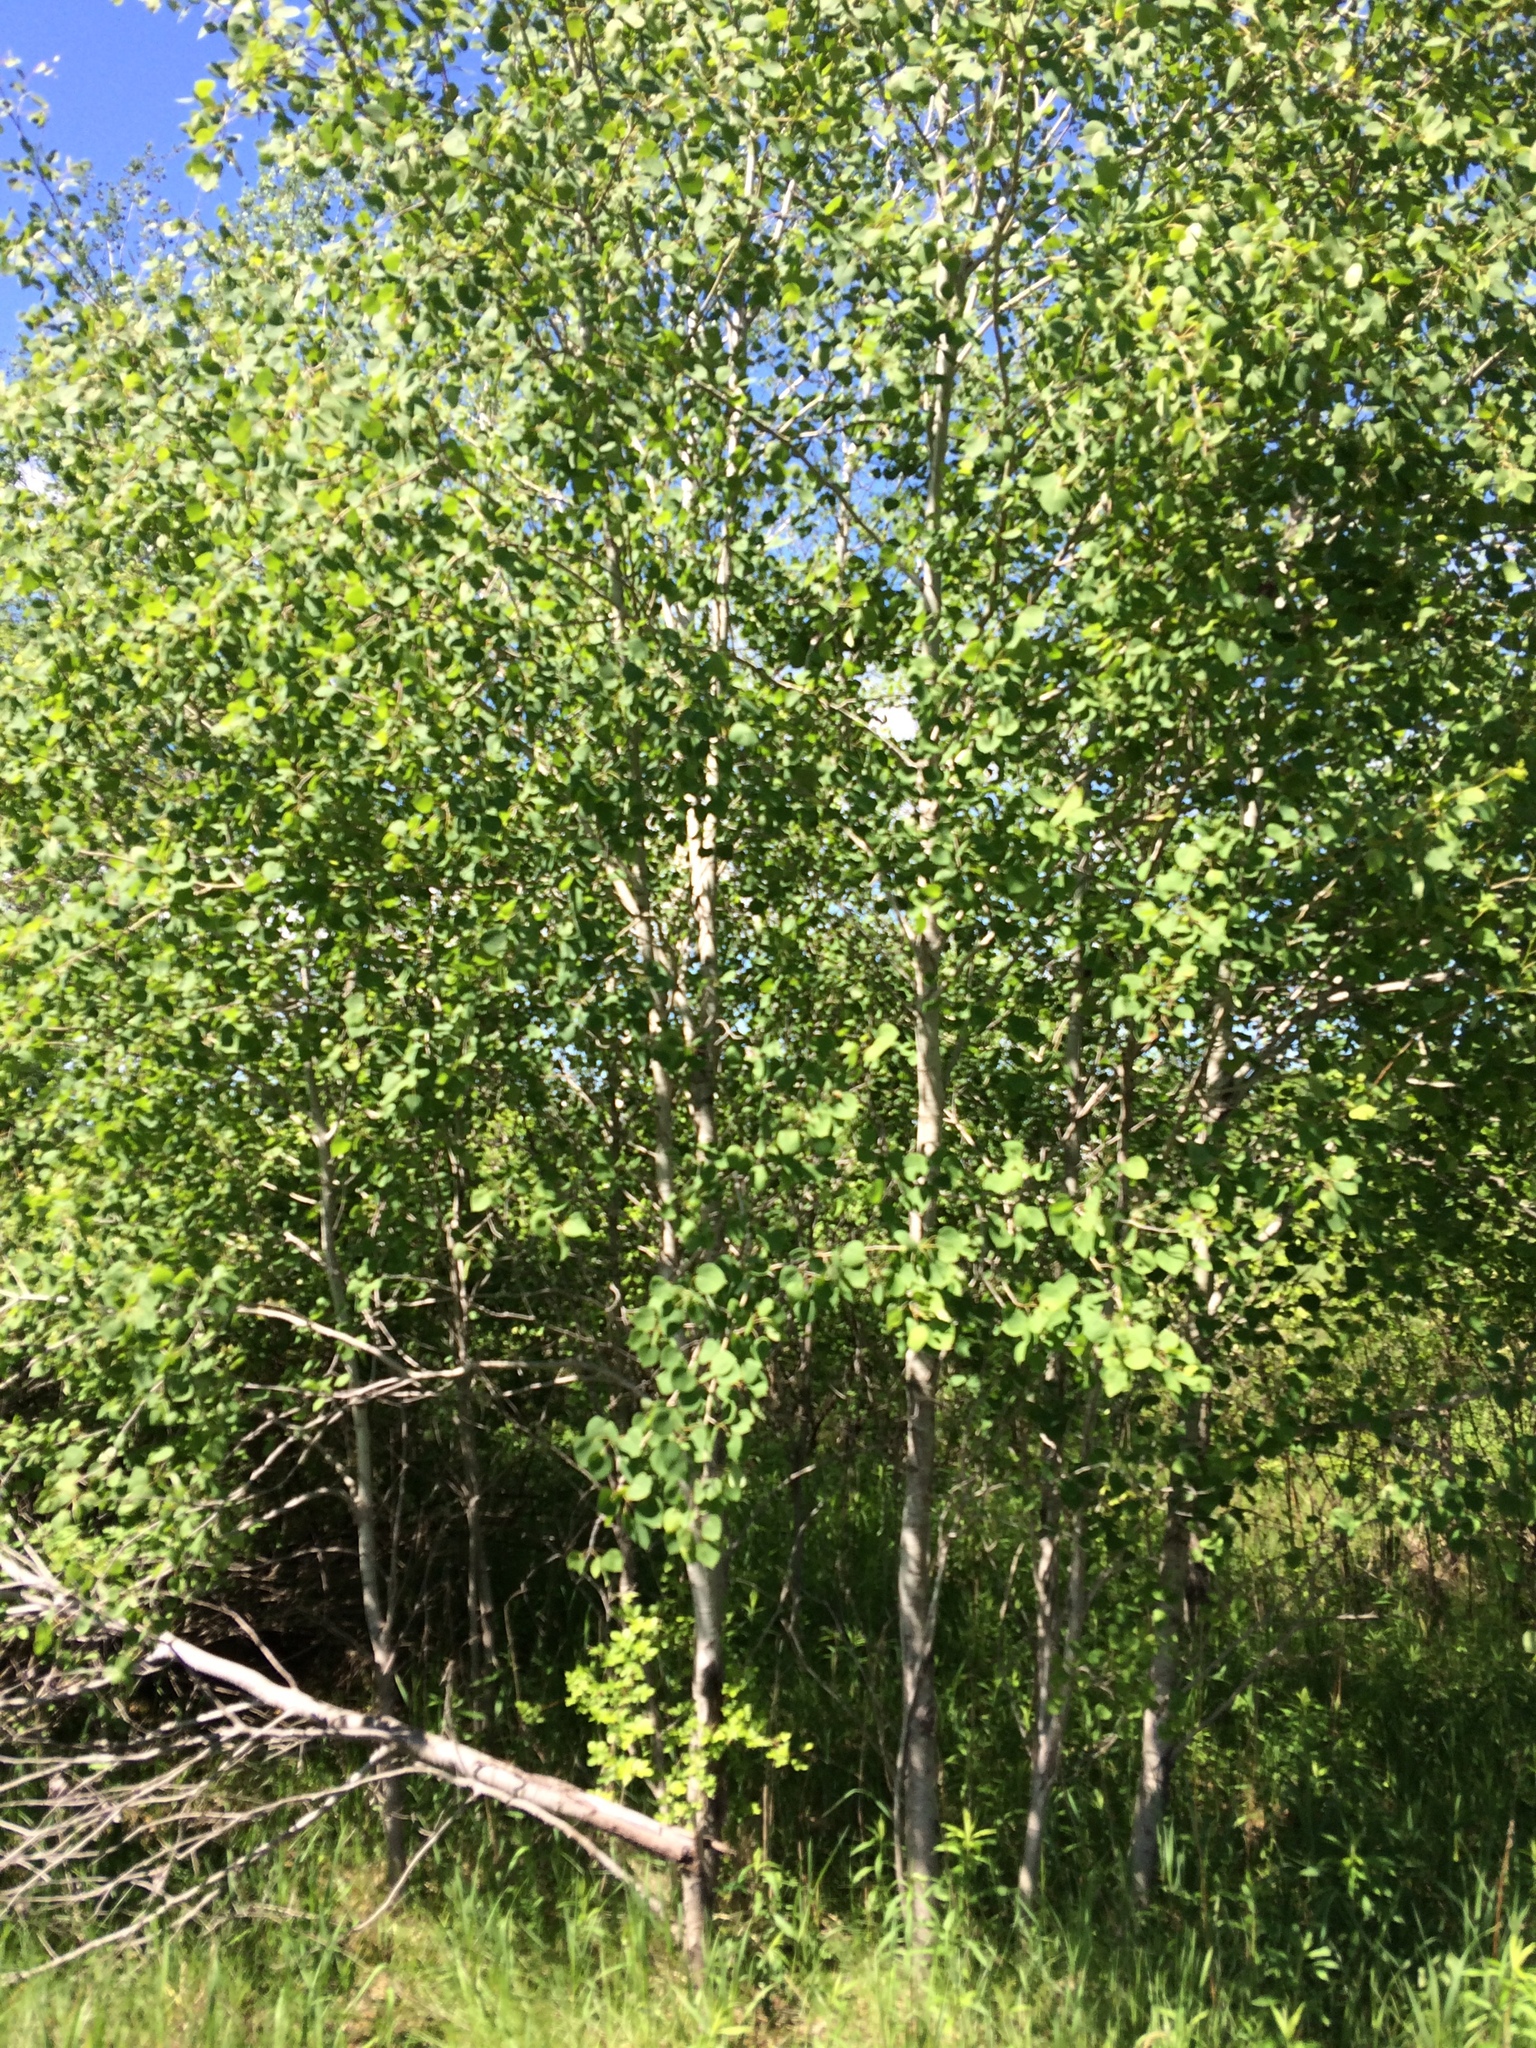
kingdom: Plantae
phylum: Tracheophyta
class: Magnoliopsida
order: Malpighiales
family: Salicaceae
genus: Populus
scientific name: Populus tremuloides
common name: Quaking aspen
